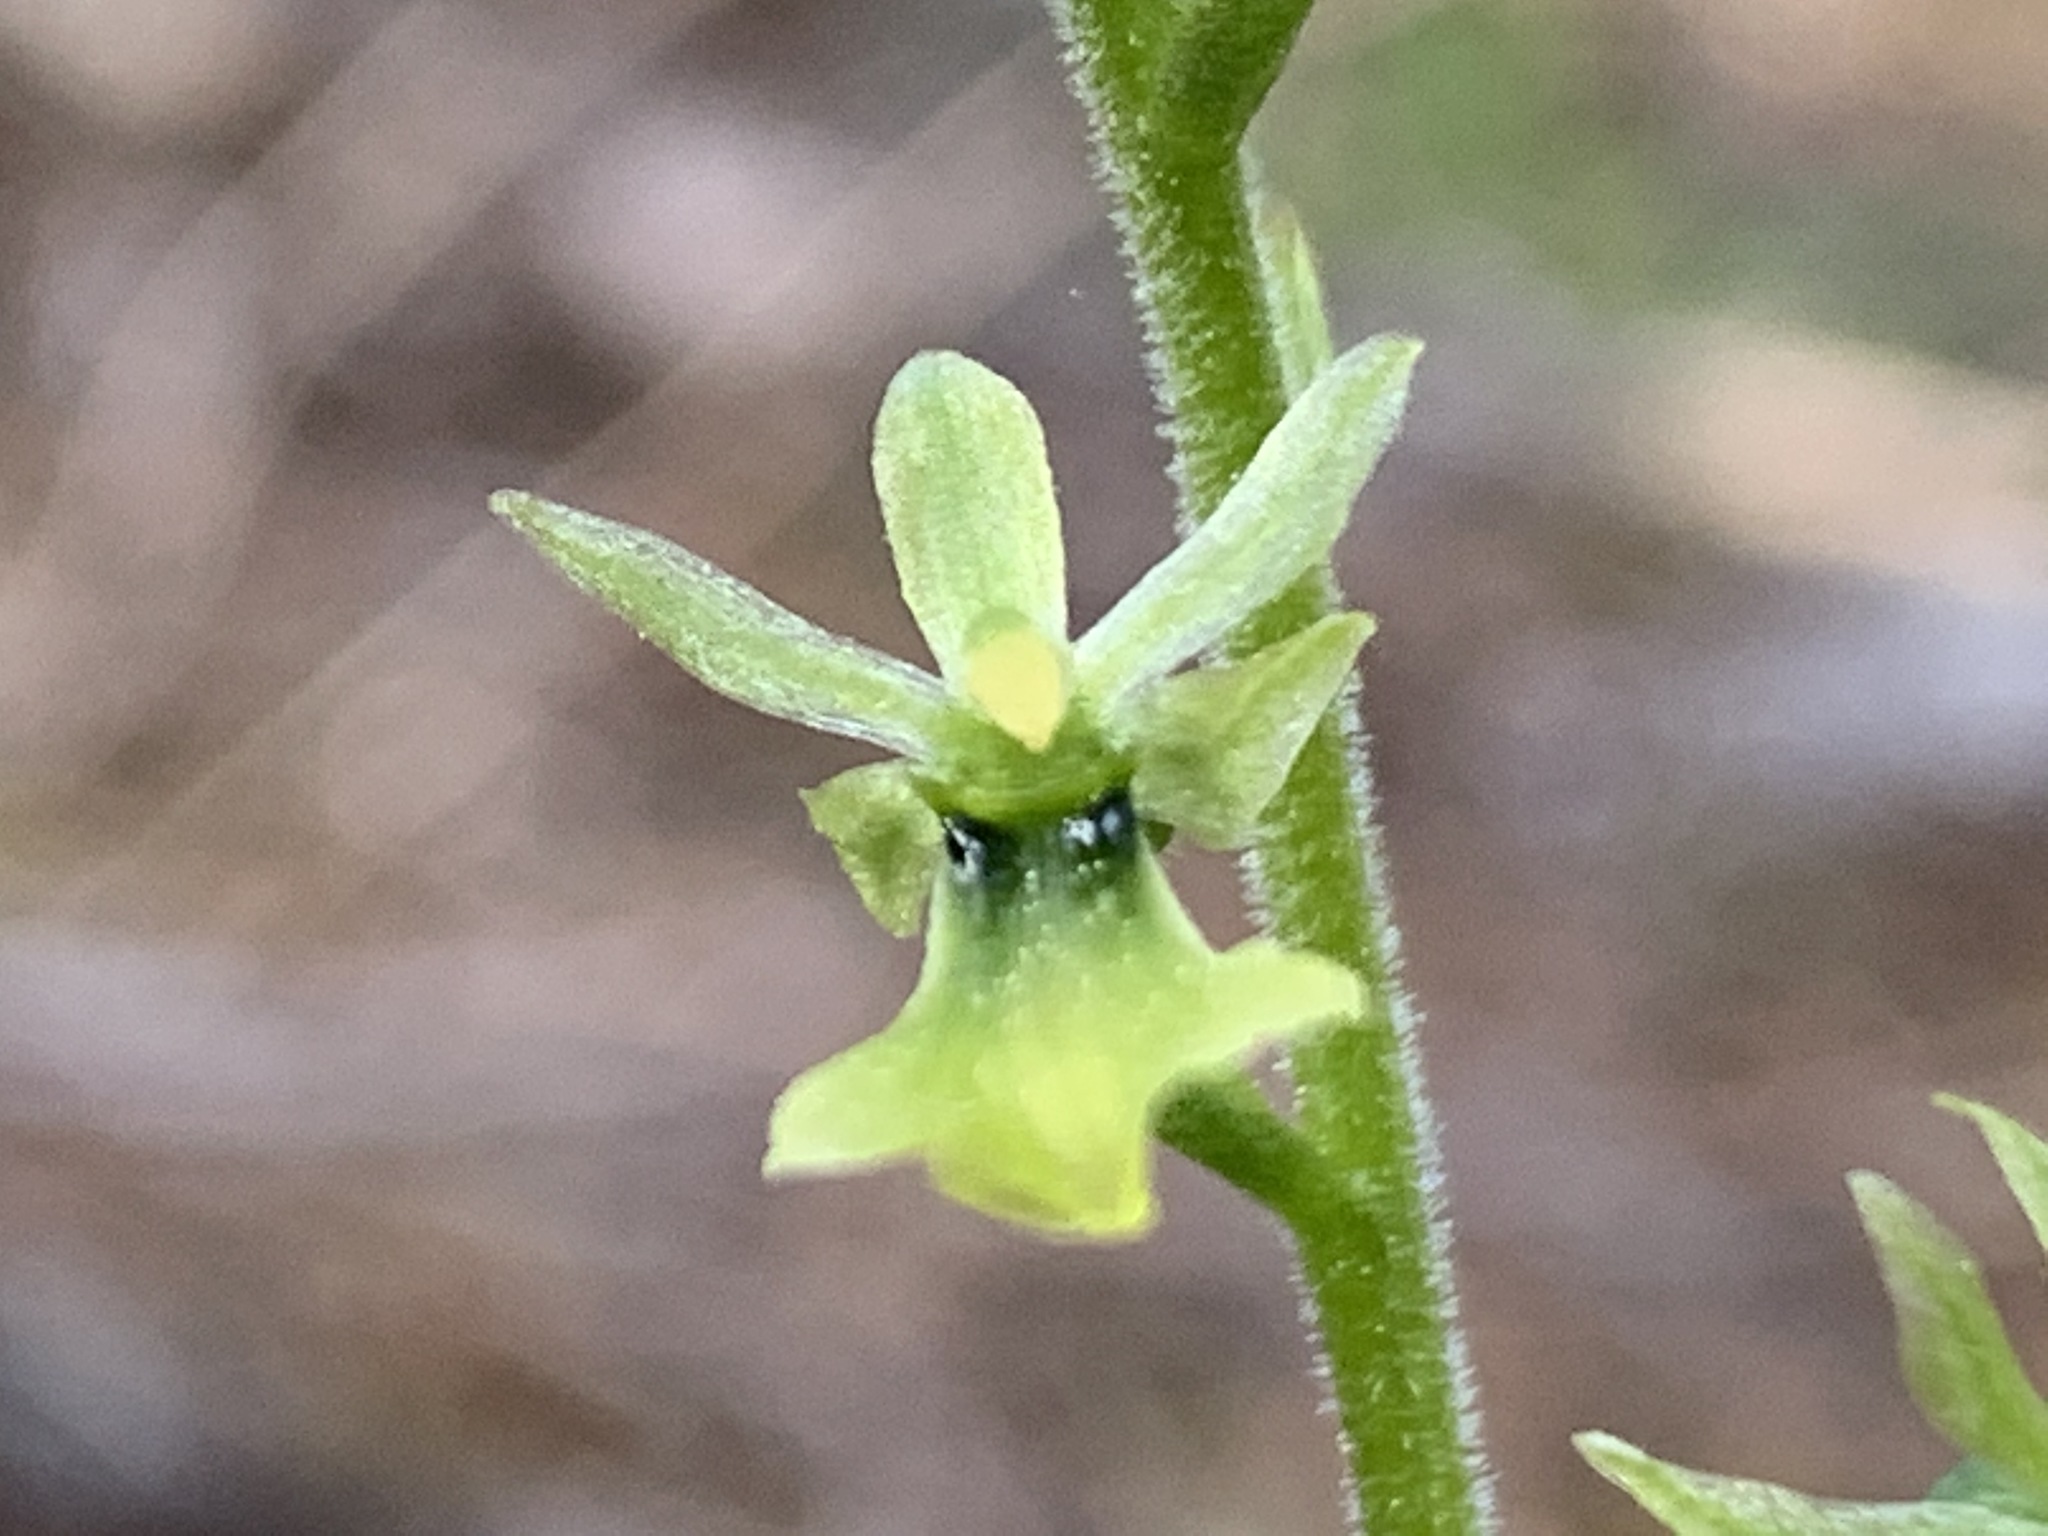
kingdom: Plantae
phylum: Tracheophyta
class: Liliopsida
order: Asparagales
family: Orchidaceae
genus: Neottia
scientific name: Neottia banksiana
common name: Northwestern twayblade
